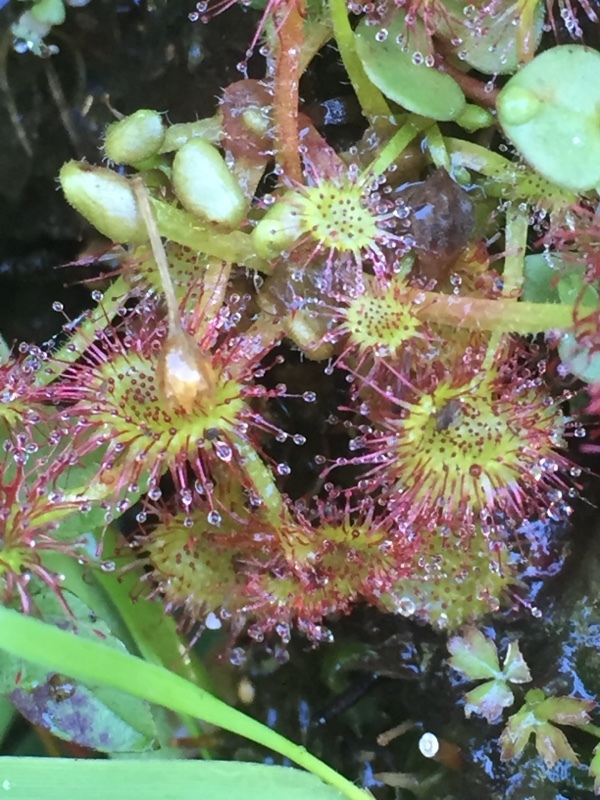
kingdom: Plantae
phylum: Tracheophyta
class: Magnoliopsida
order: Caryophyllales
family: Droseraceae
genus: Drosera
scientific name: Drosera rotundifolia
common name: Round-leaved sundew
